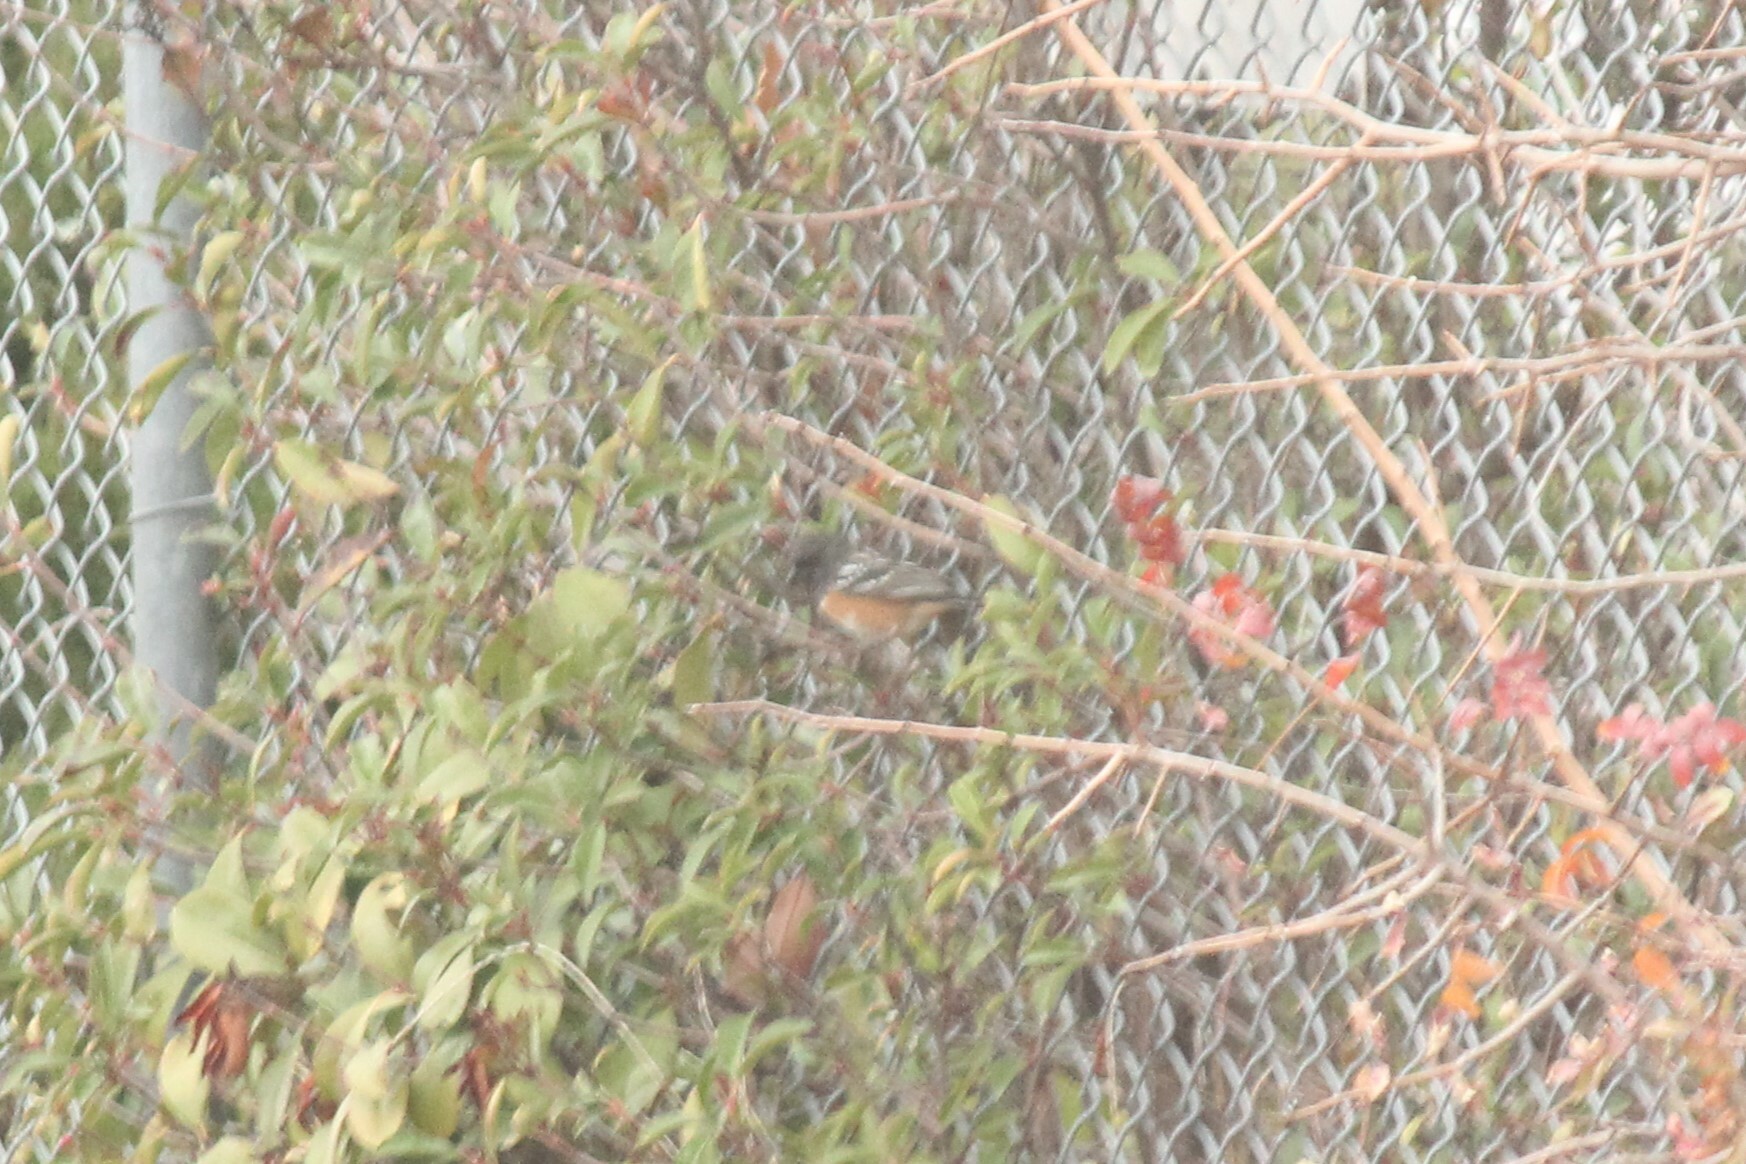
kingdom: Animalia
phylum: Chordata
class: Aves
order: Passeriformes
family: Passerellidae
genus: Pipilo
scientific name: Pipilo maculatus
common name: Spotted towhee
